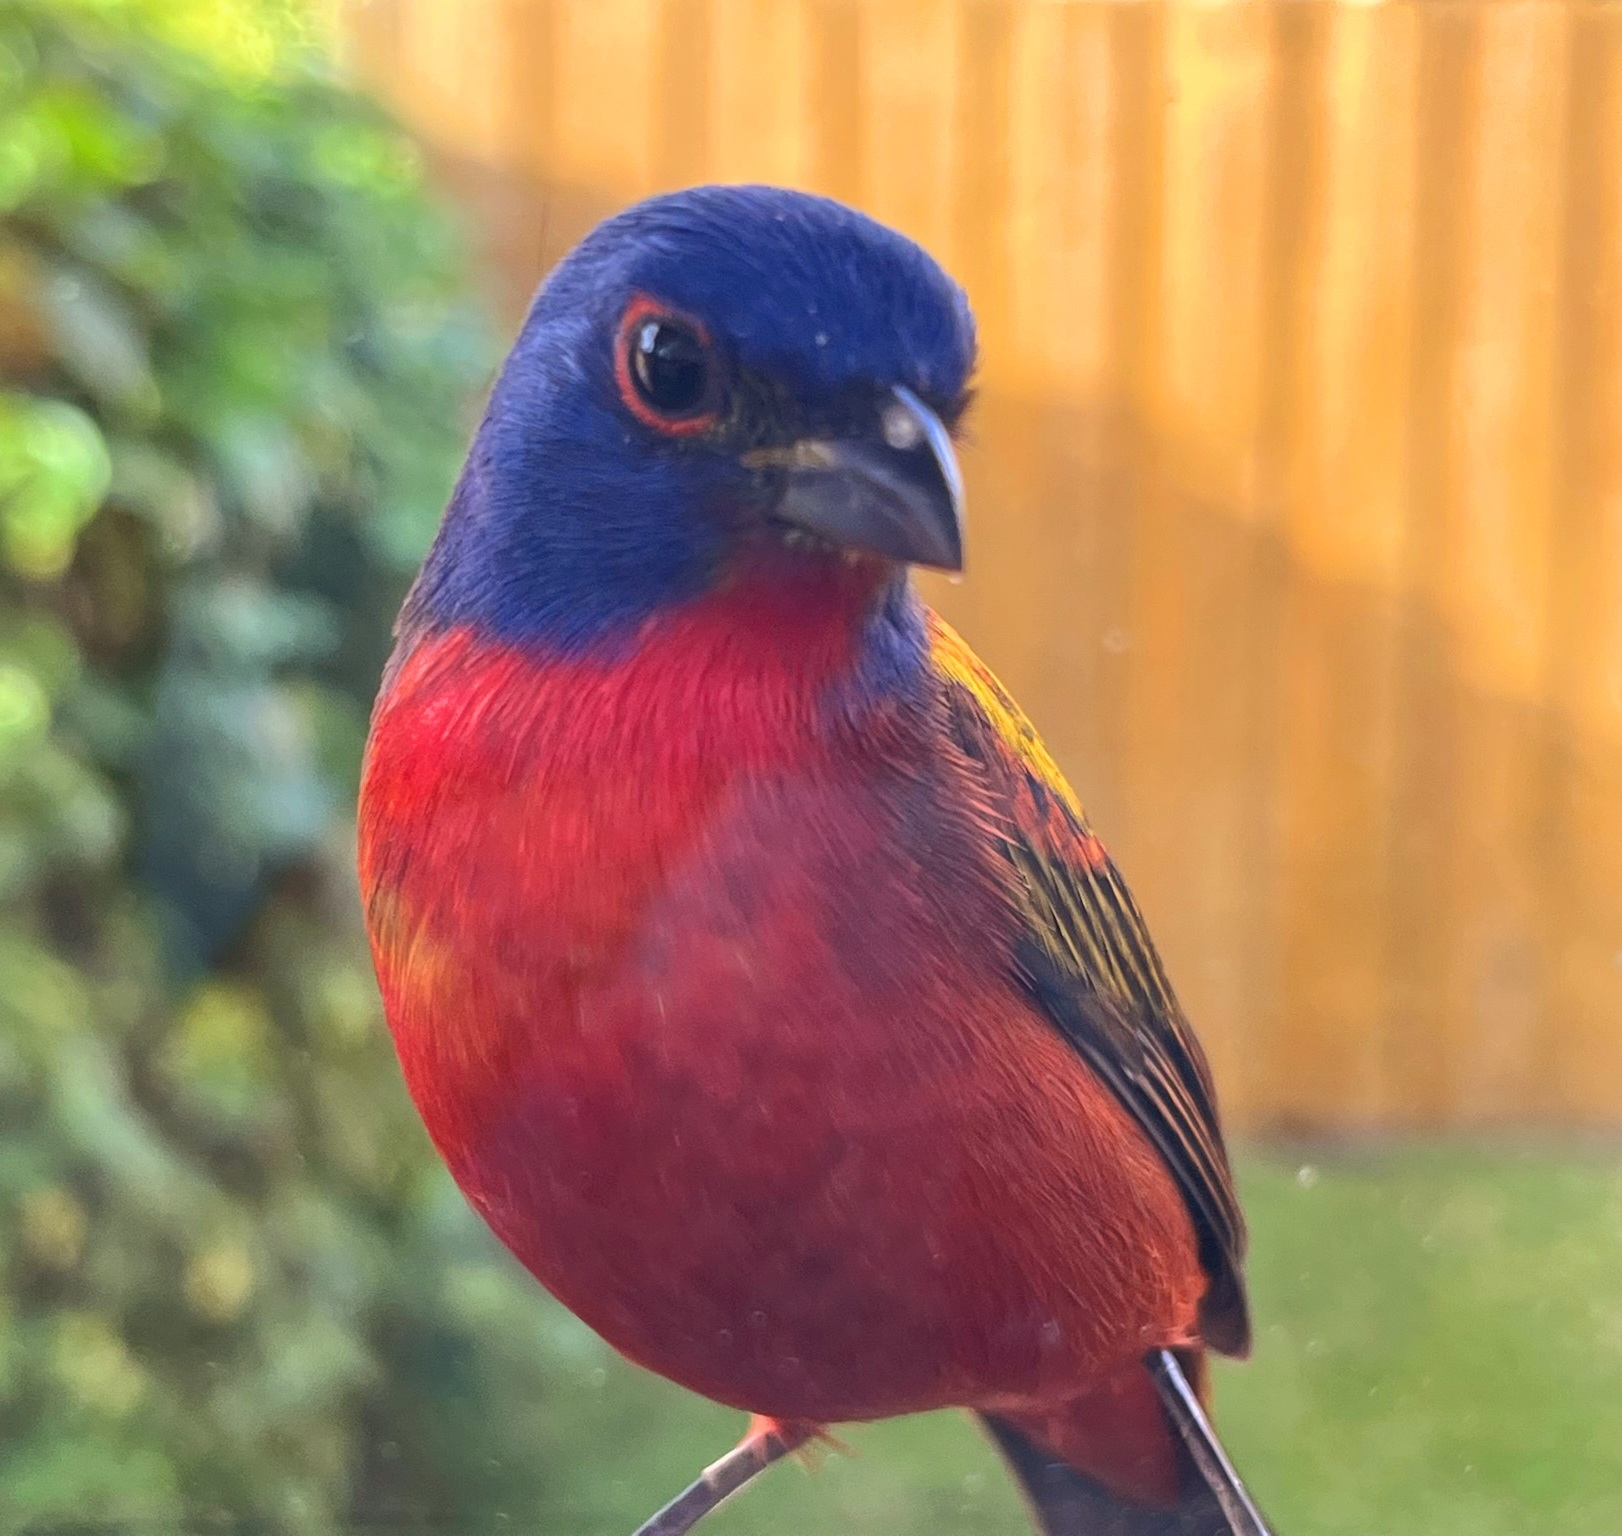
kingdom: Animalia
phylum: Chordata
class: Aves
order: Passeriformes
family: Cardinalidae
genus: Passerina
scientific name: Passerina ciris
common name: Painted bunting
